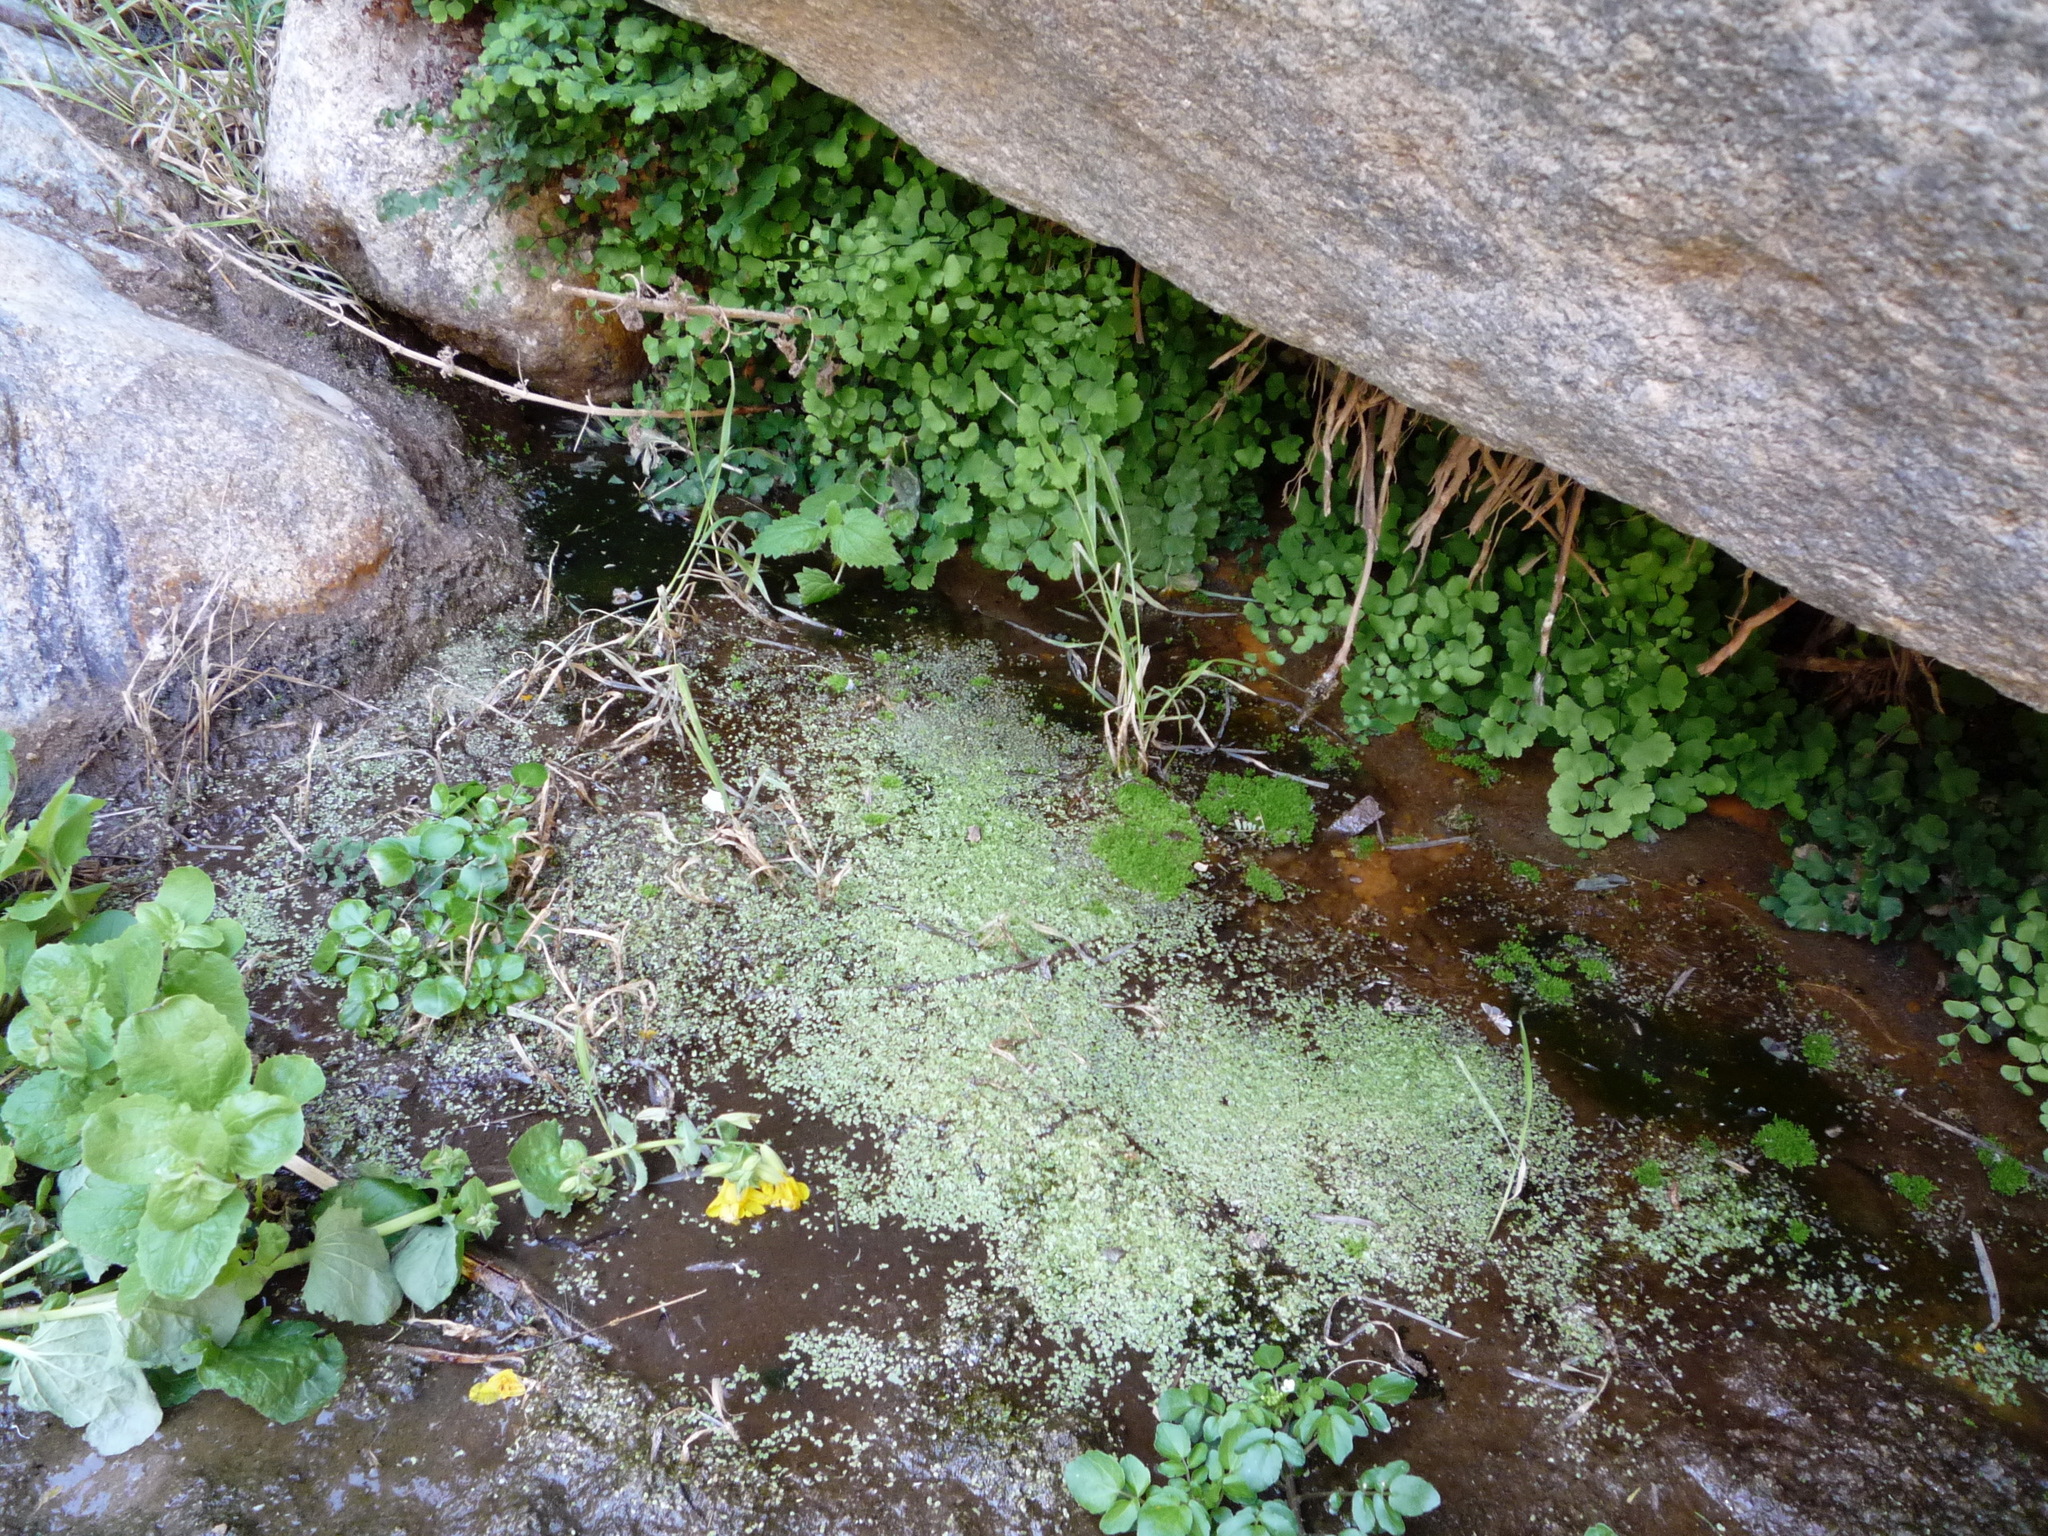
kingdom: Plantae
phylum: Tracheophyta
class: Polypodiopsida
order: Polypodiales
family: Pteridaceae
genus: Adiantum
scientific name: Adiantum capillus-veneris
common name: Maidenhair fern
